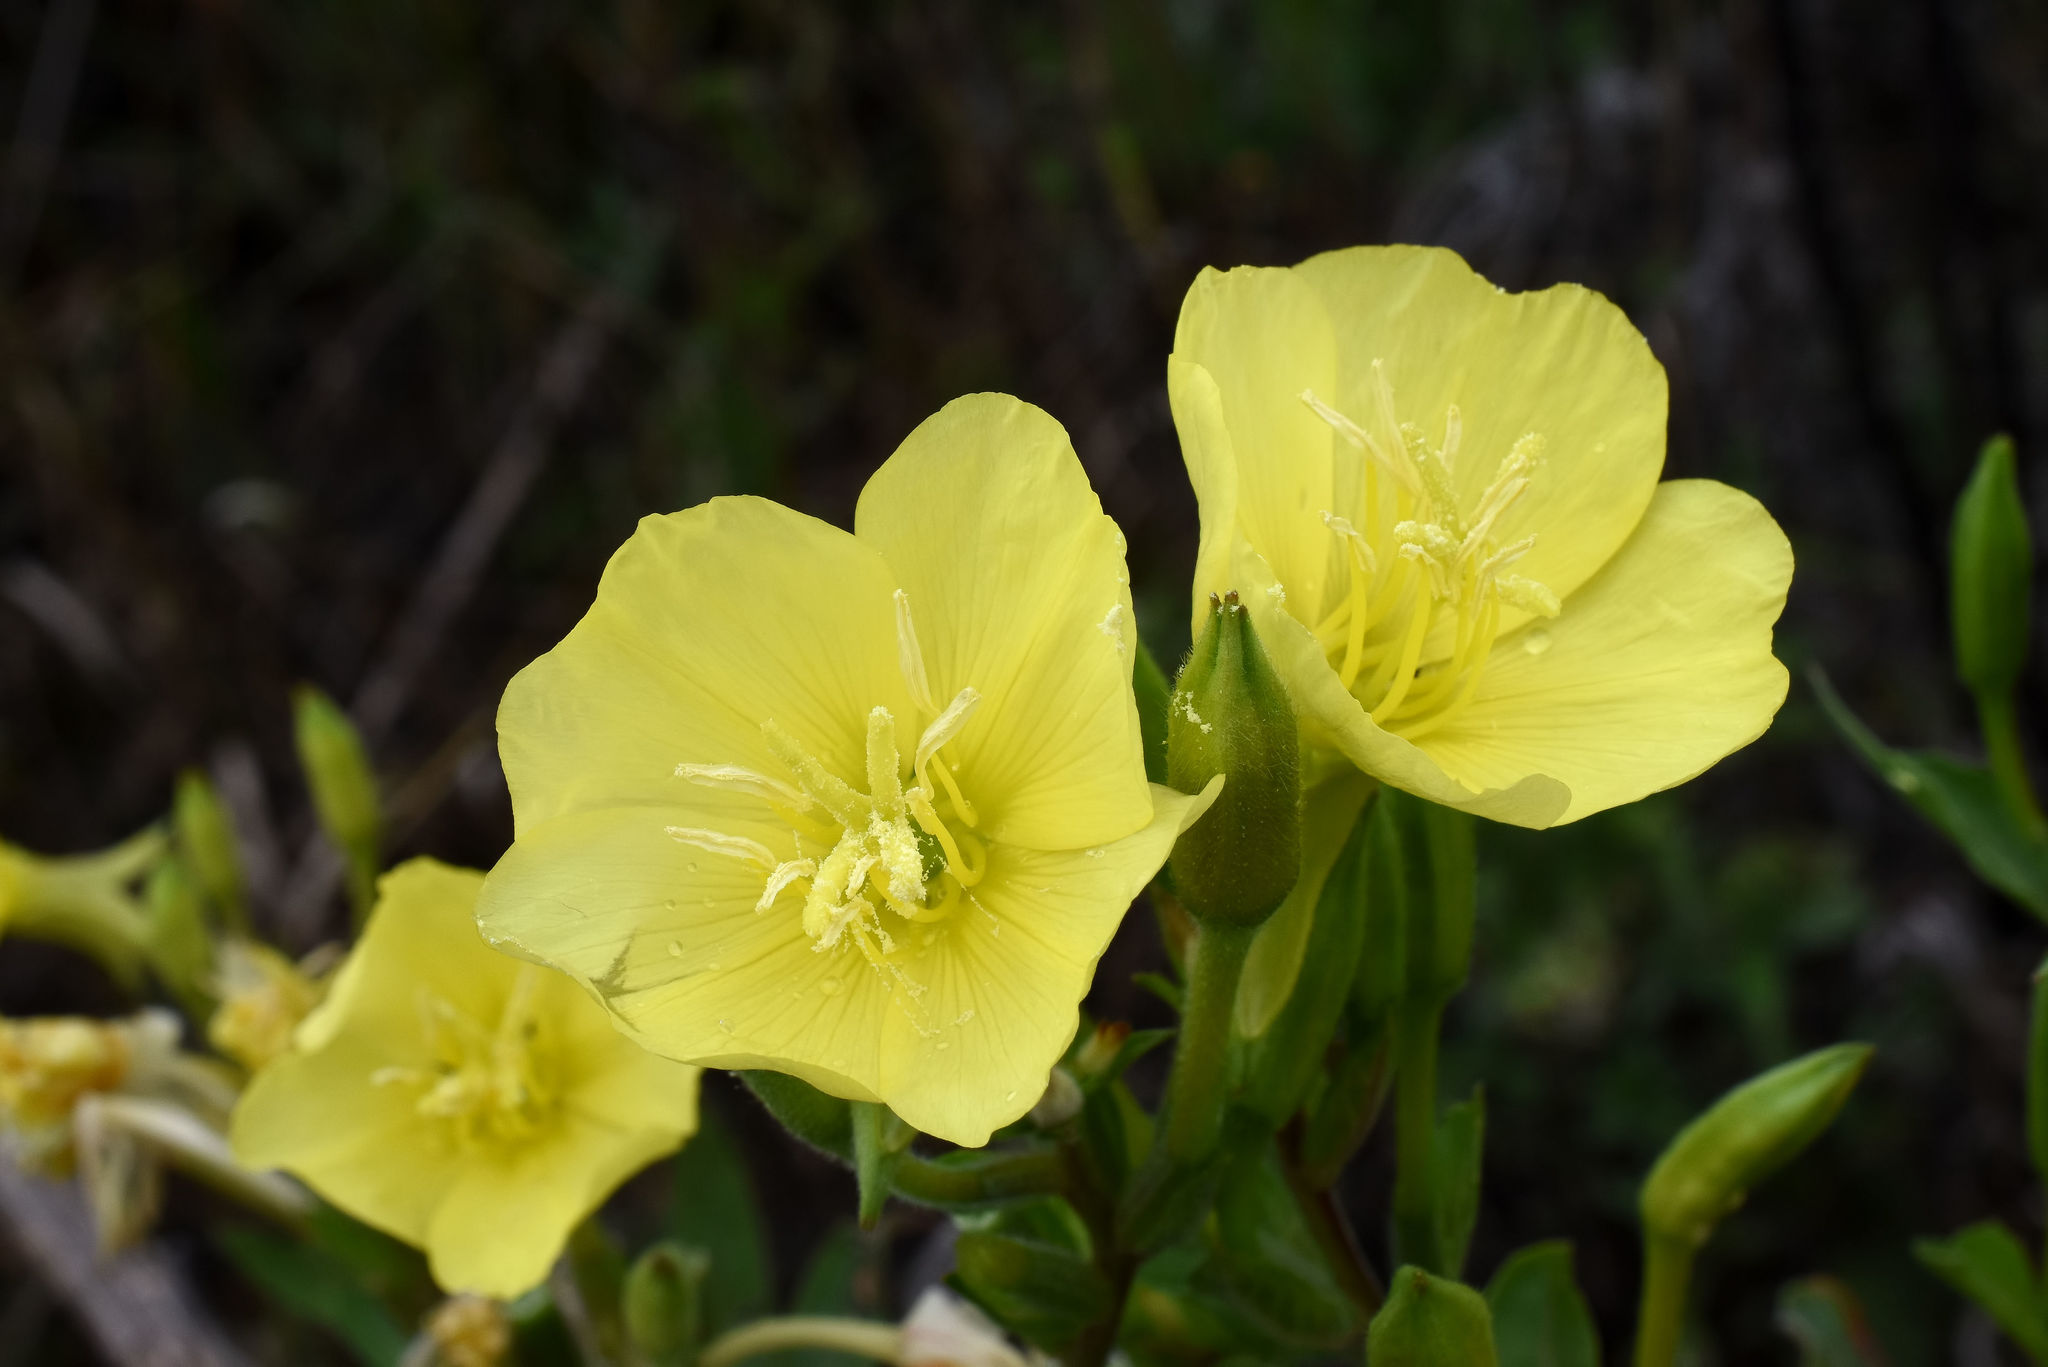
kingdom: Plantae
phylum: Tracheophyta
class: Magnoliopsida
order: Myrtales
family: Onagraceae
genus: Oenothera
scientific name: Oenothera biennis
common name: Common evening-primrose
